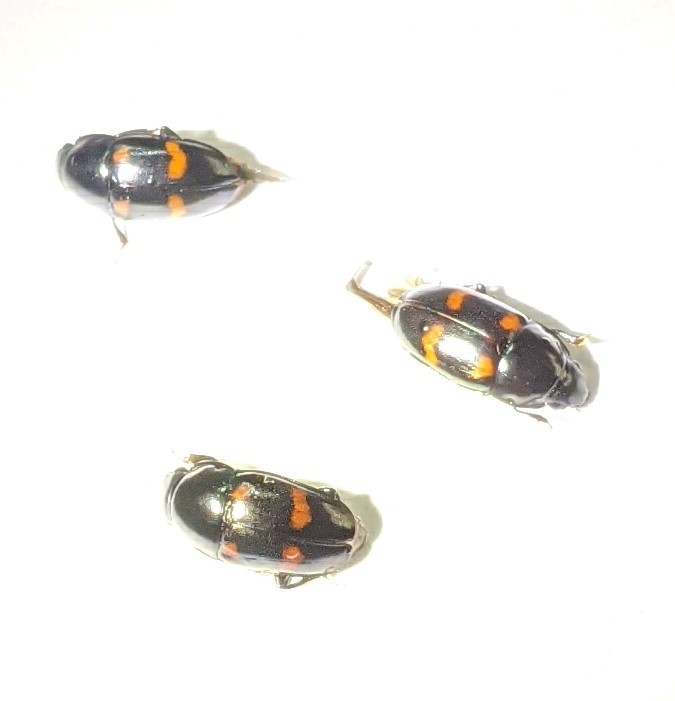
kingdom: Animalia
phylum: Arthropoda
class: Insecta
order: Coleoptera
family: Nitidulidae
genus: Glischrochilus
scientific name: Glischrochilus sanguinolentus
